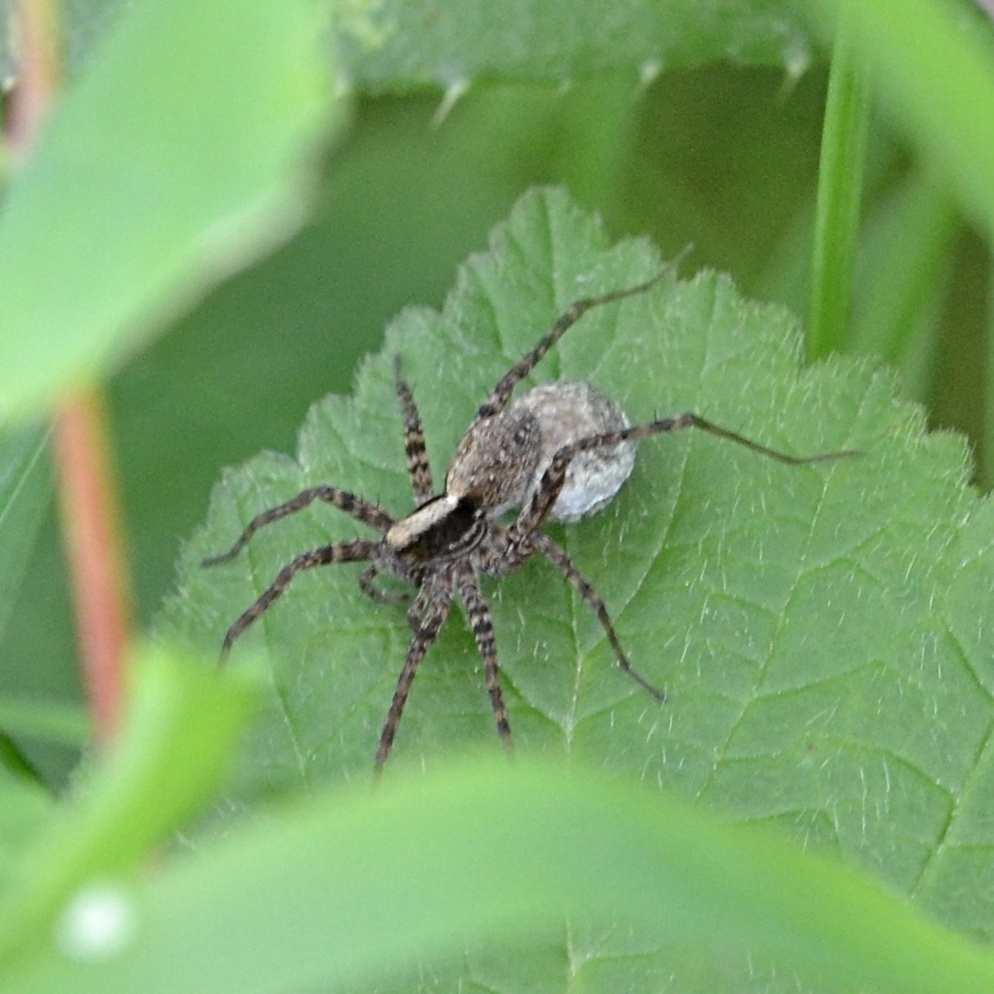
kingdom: Animalia
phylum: Arthropoda
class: Arachnida
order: Araneae
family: Lycosidae
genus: Pardosa
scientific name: Pardosa
